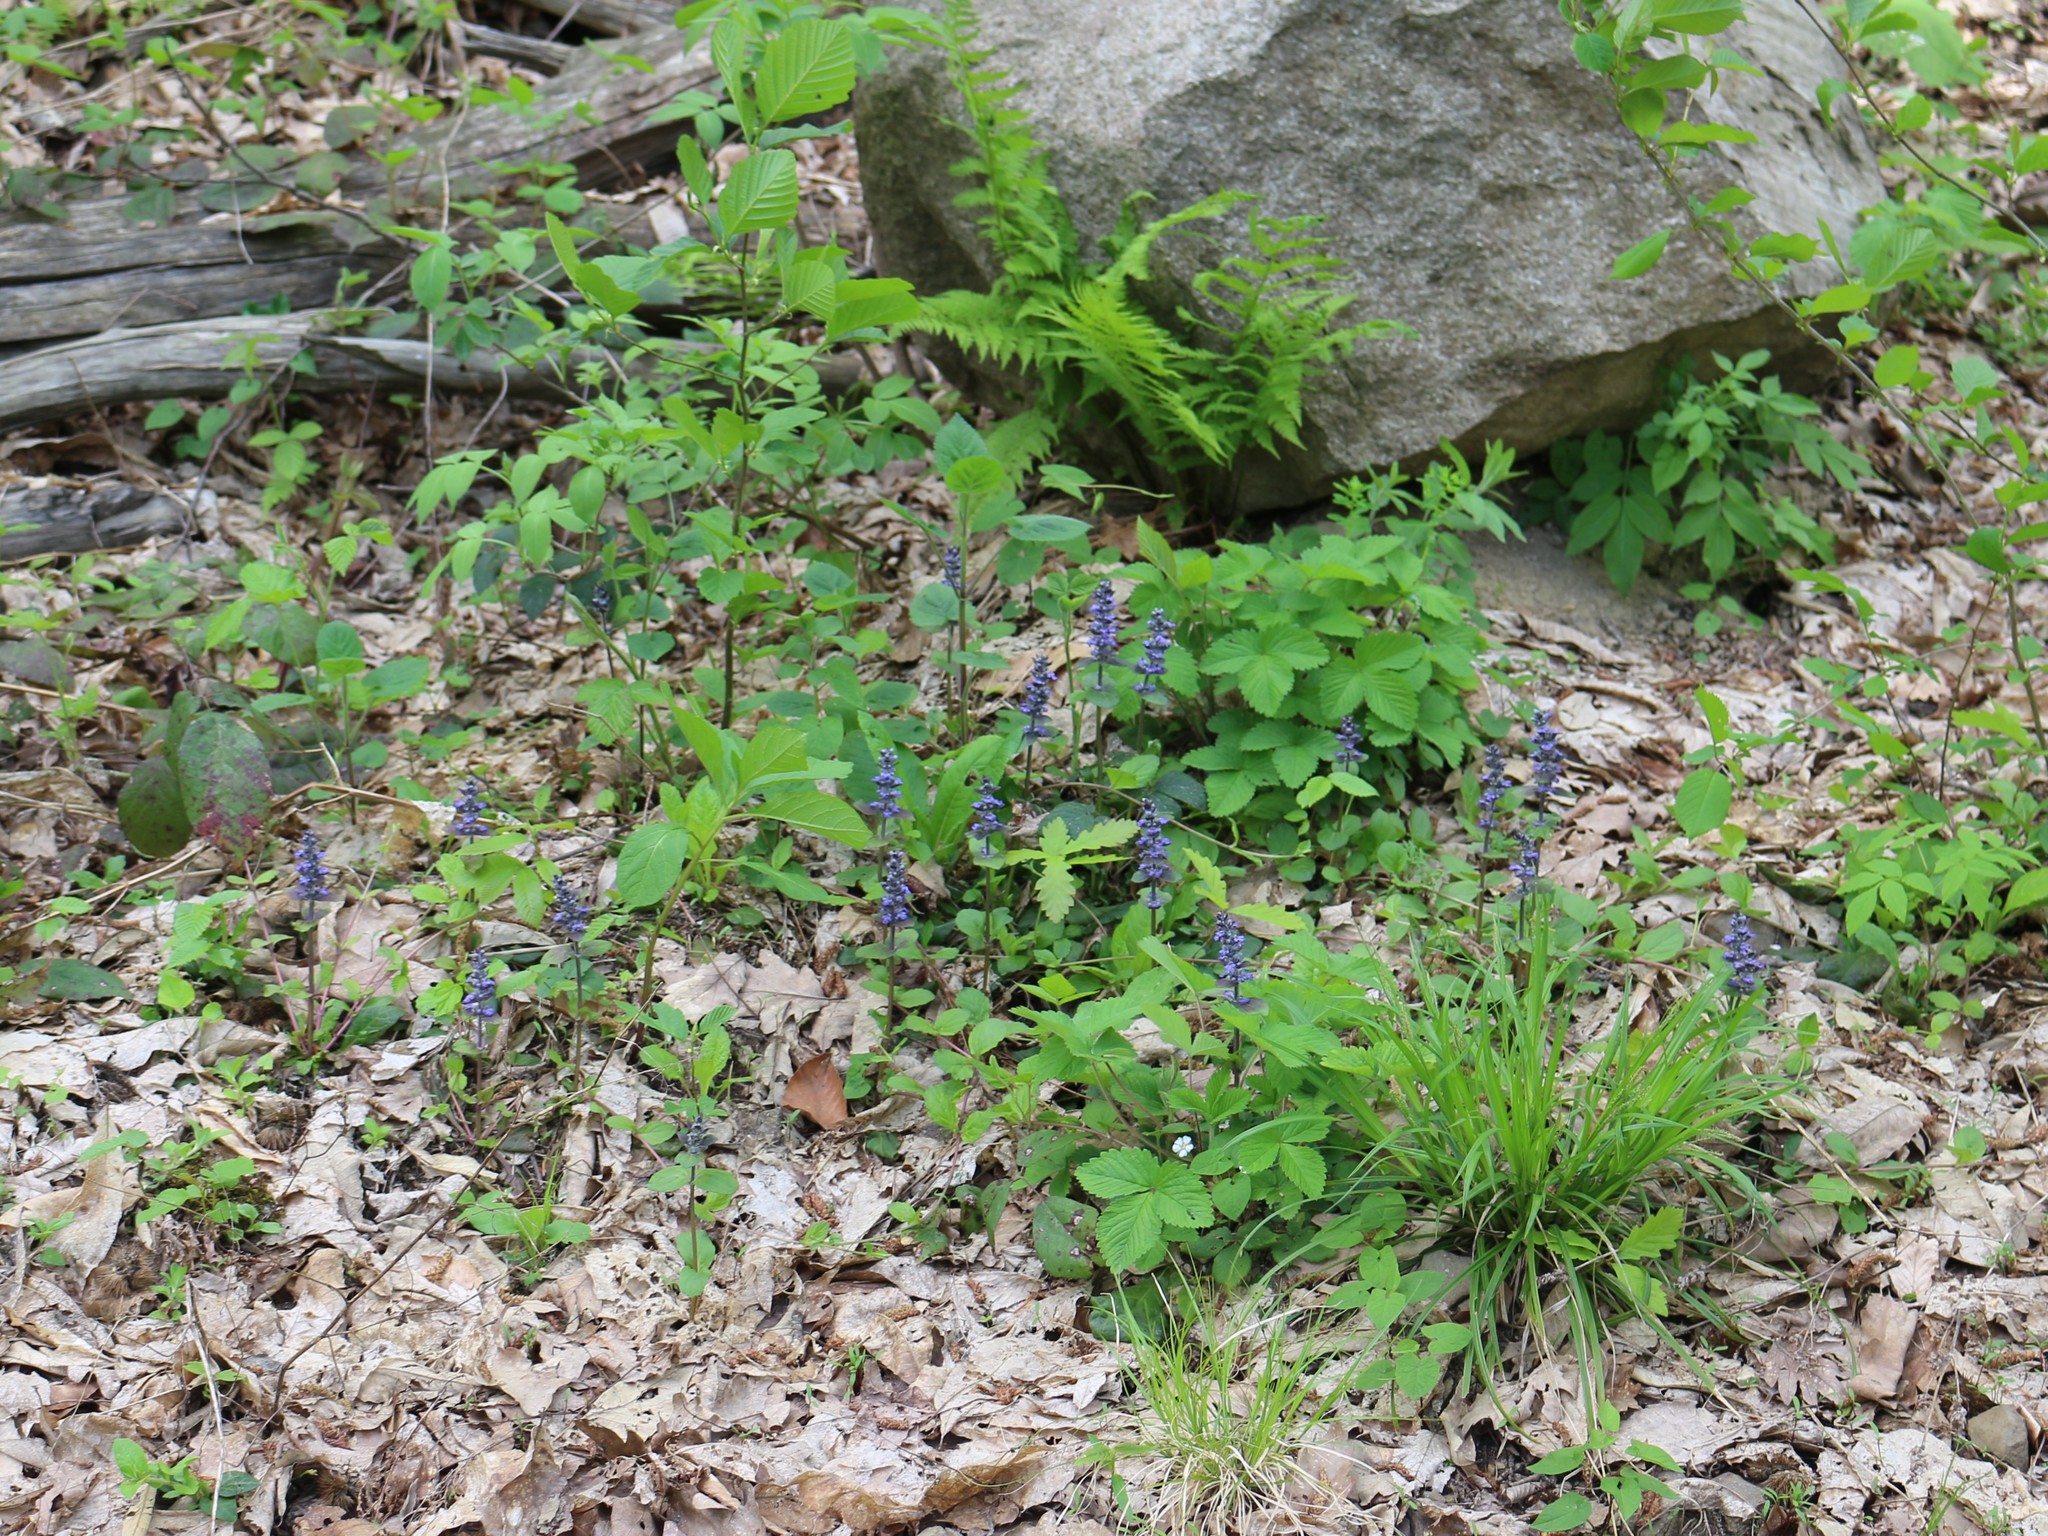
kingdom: Plantae
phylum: Tracheophyta
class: Magnoliopsida
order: Lamiales
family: Lamiaceae
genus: Ajuga
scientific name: Ajuga reptans
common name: Bugle
